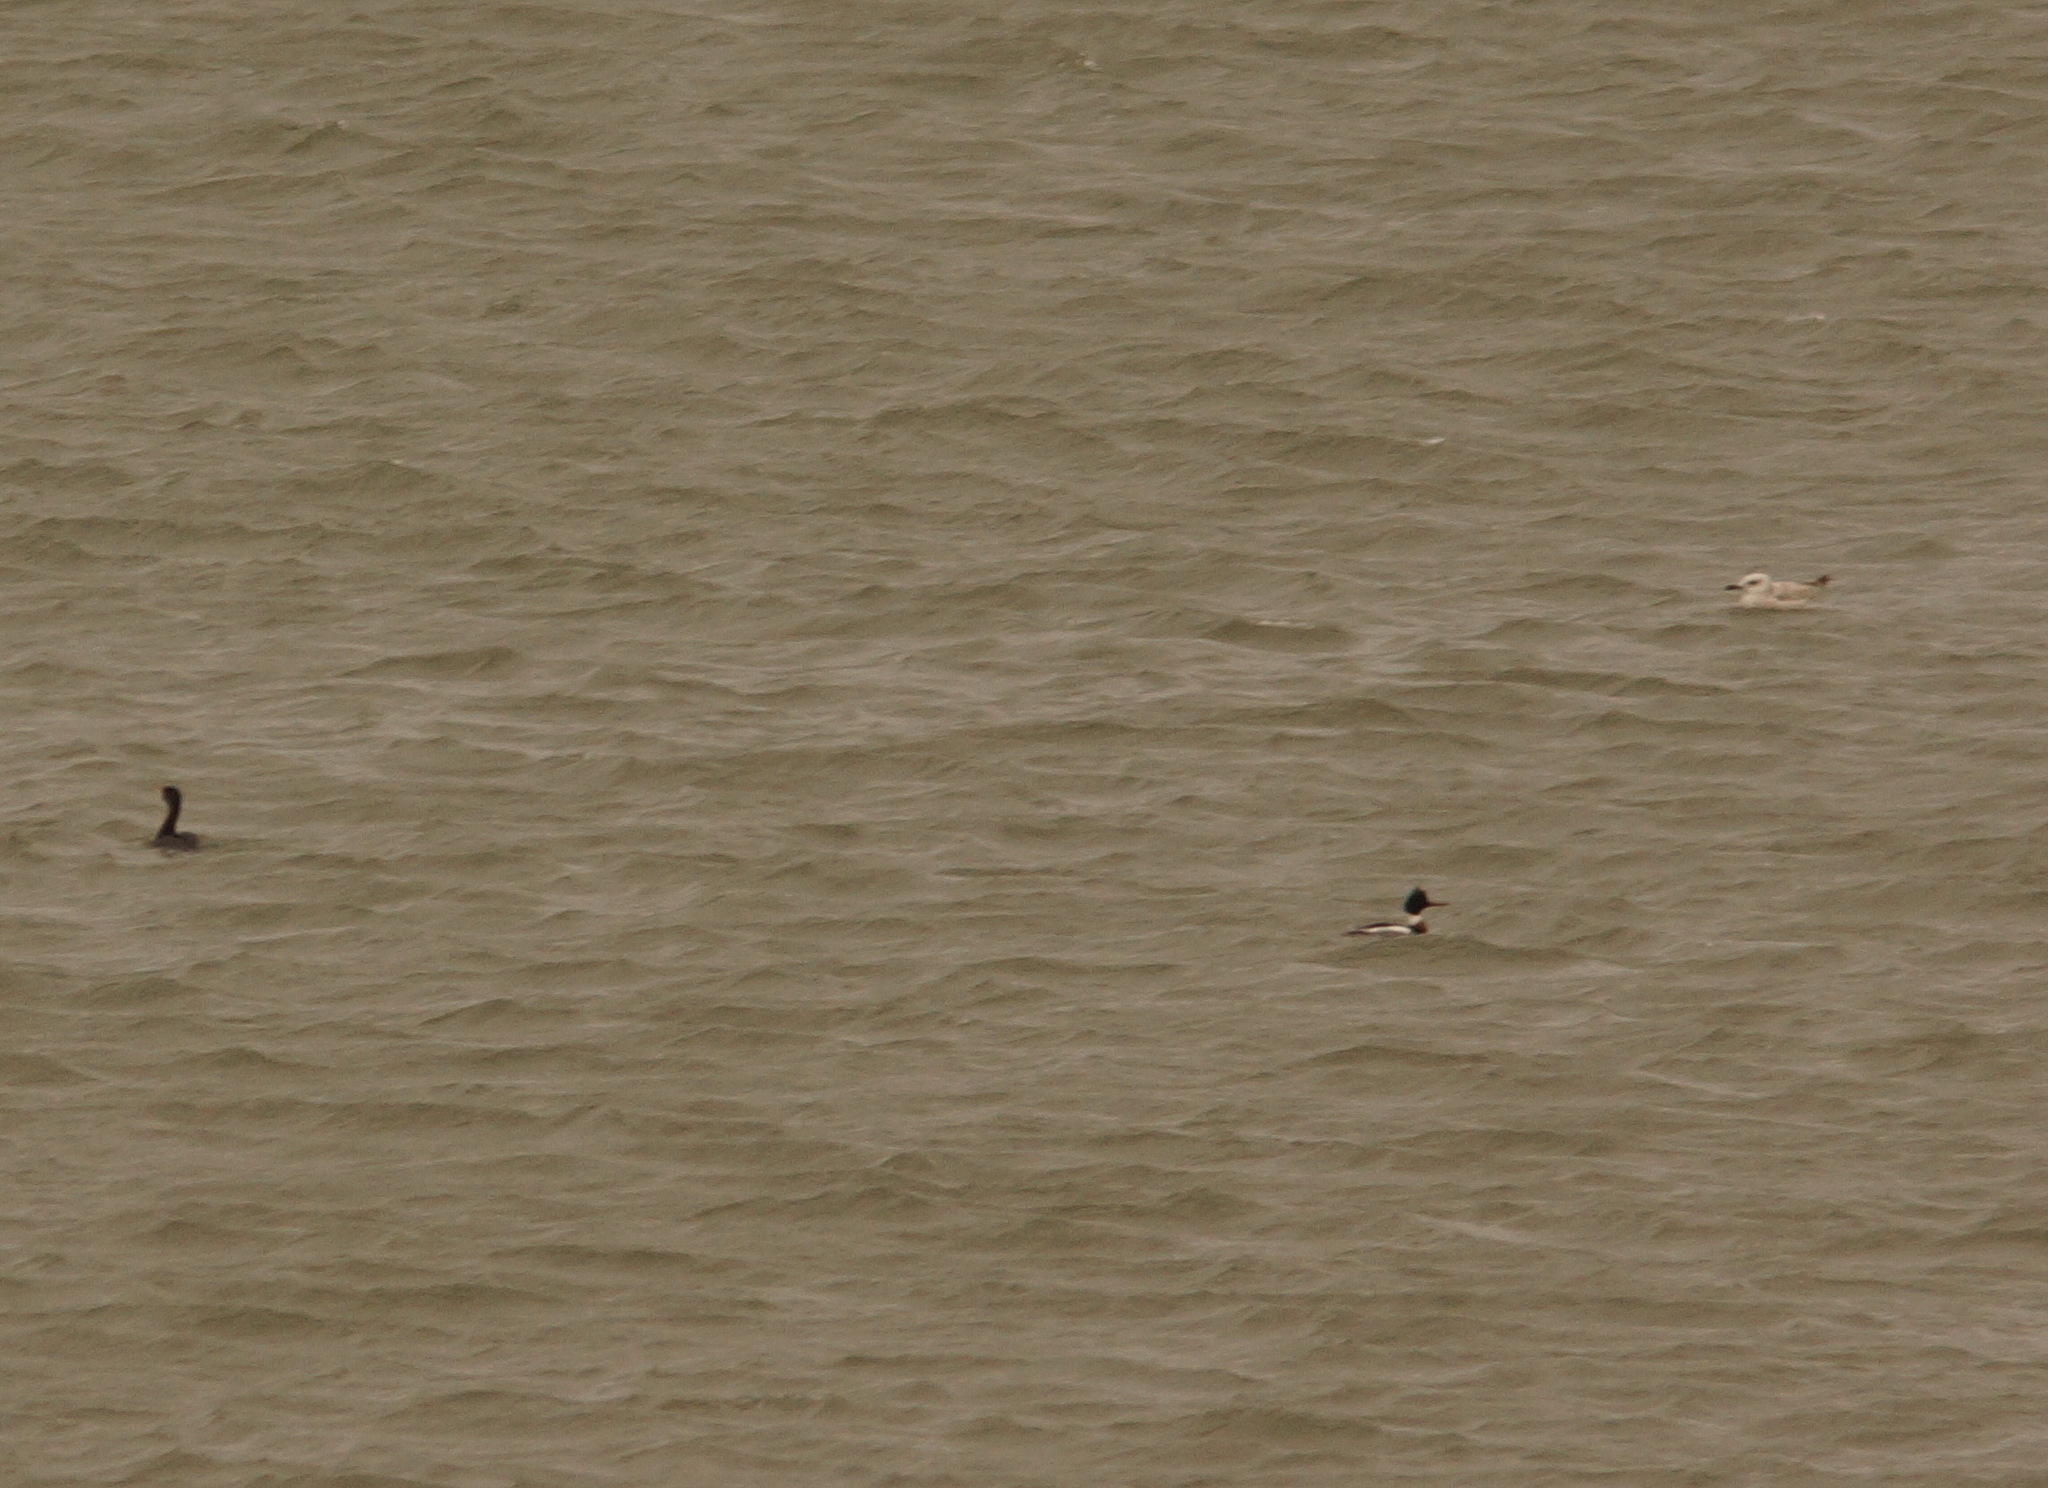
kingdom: Animalia
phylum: Chordata
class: Aves
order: Anseriformes
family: Anatidae
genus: Mergus
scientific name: Mergus serrator
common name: Red-breasted merganser
